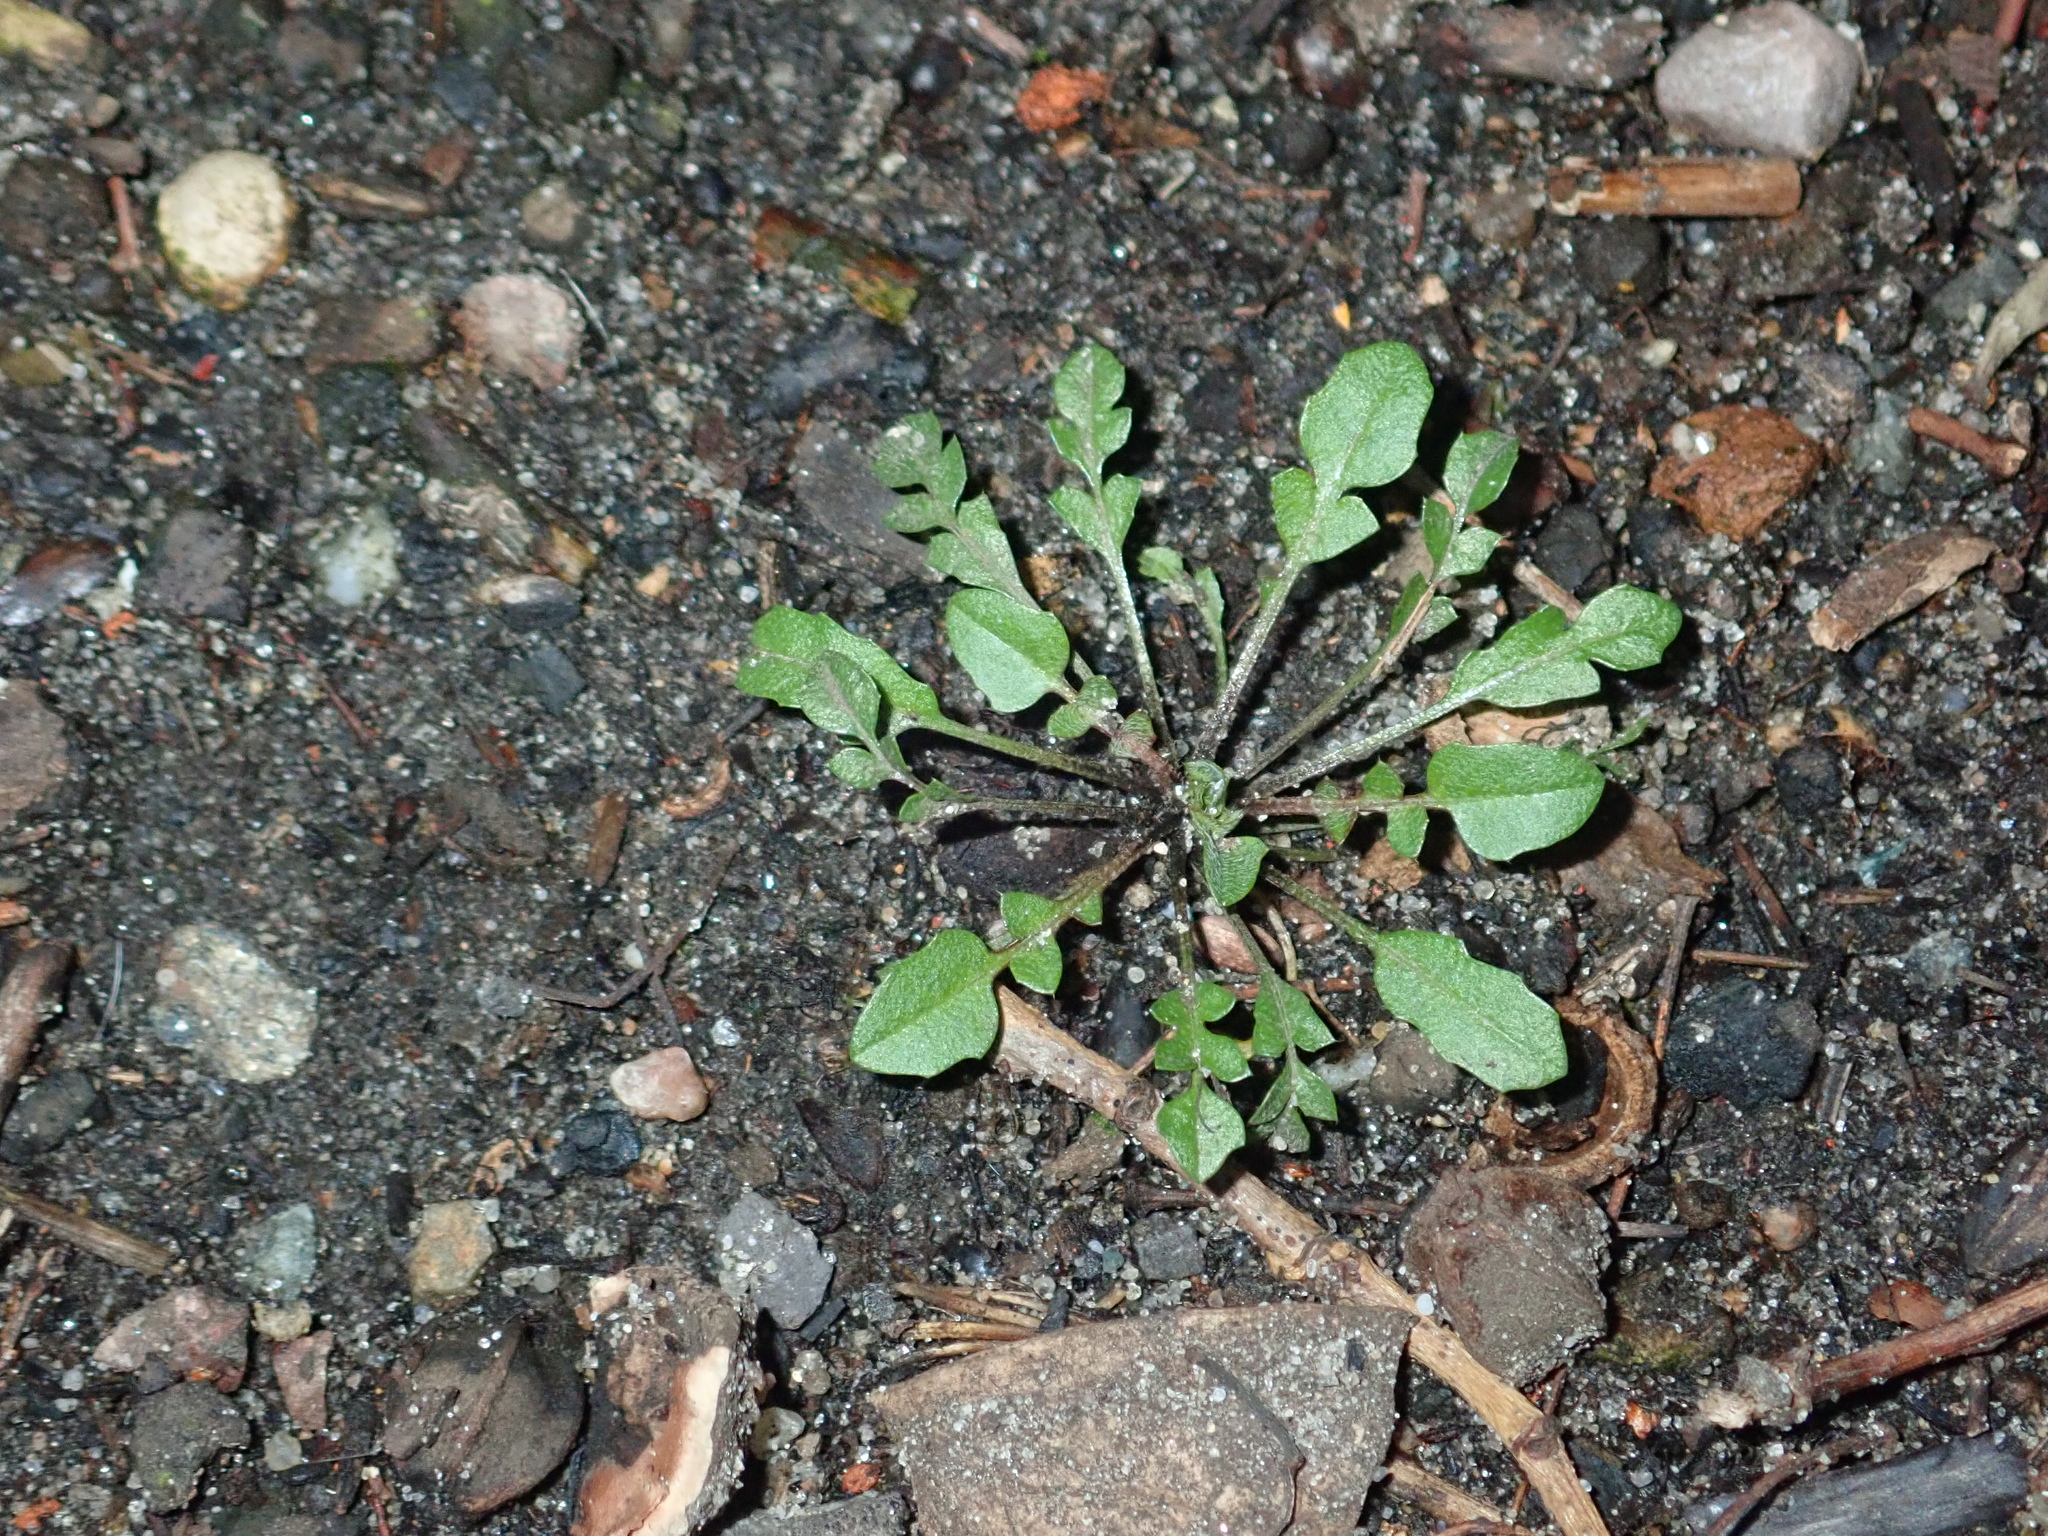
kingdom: Plantae
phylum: Tracheophyta
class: Magnoliopsida
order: Brassicales
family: Brassicaceae
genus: Capsella
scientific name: Capsella bursa-pastoris
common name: Shepherd's purse
